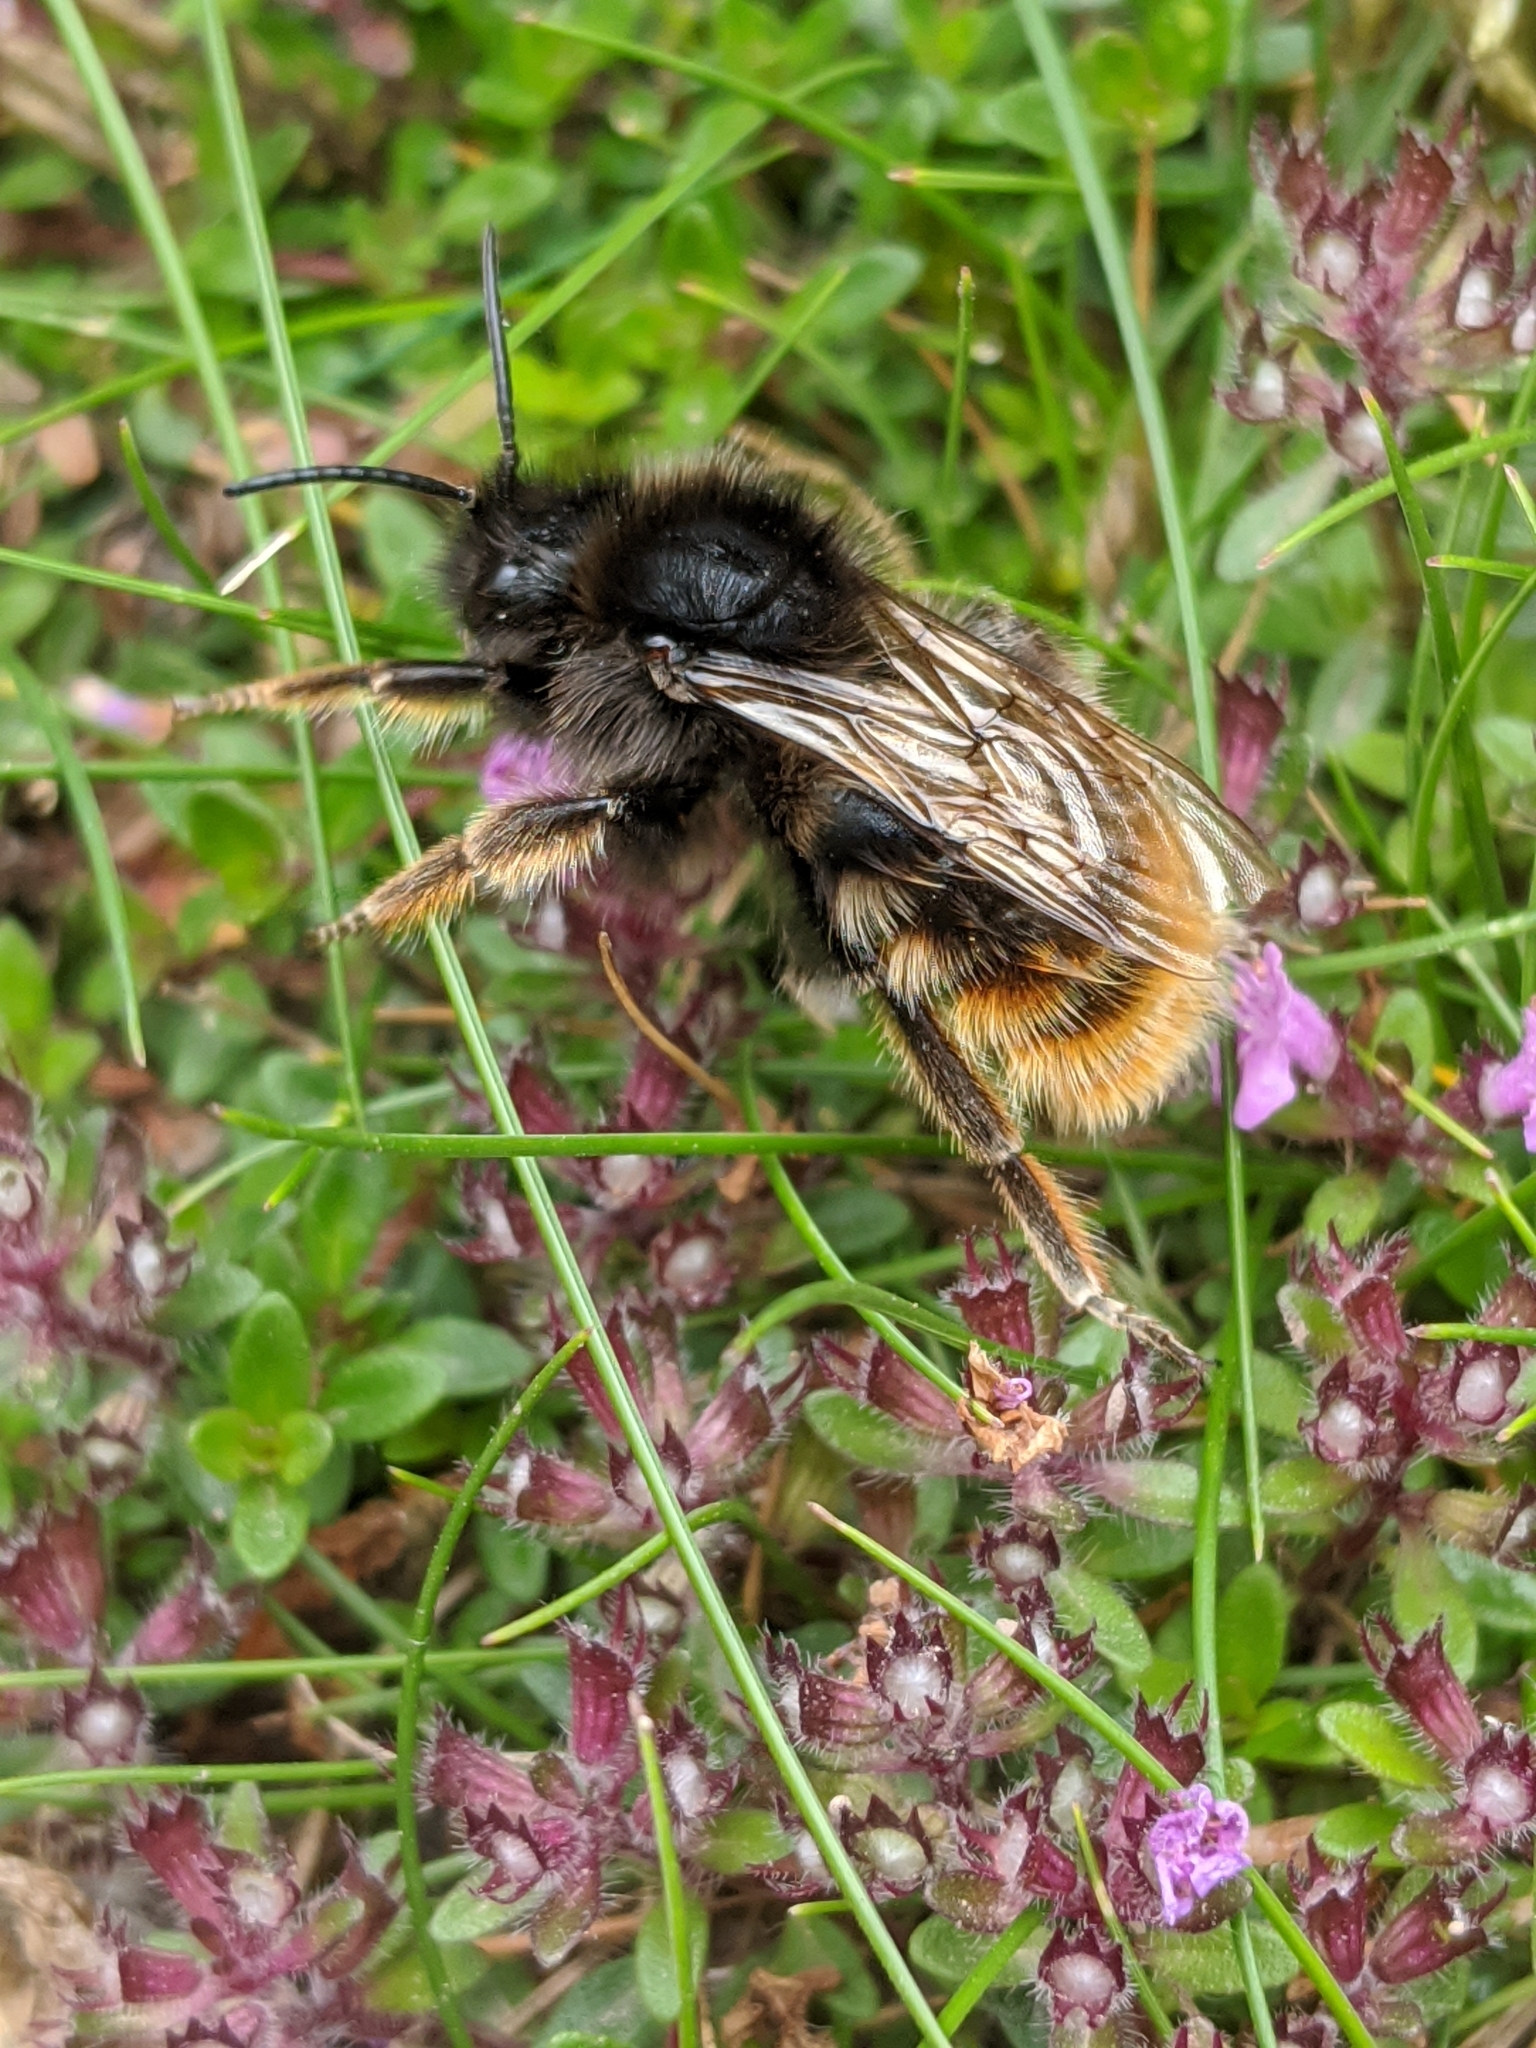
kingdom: Animalia
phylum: Arthropoda
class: Insecta
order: Hymenoptera
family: Apidae
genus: Bombus
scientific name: Bombus rupestris
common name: Hill cuckoo-bee
